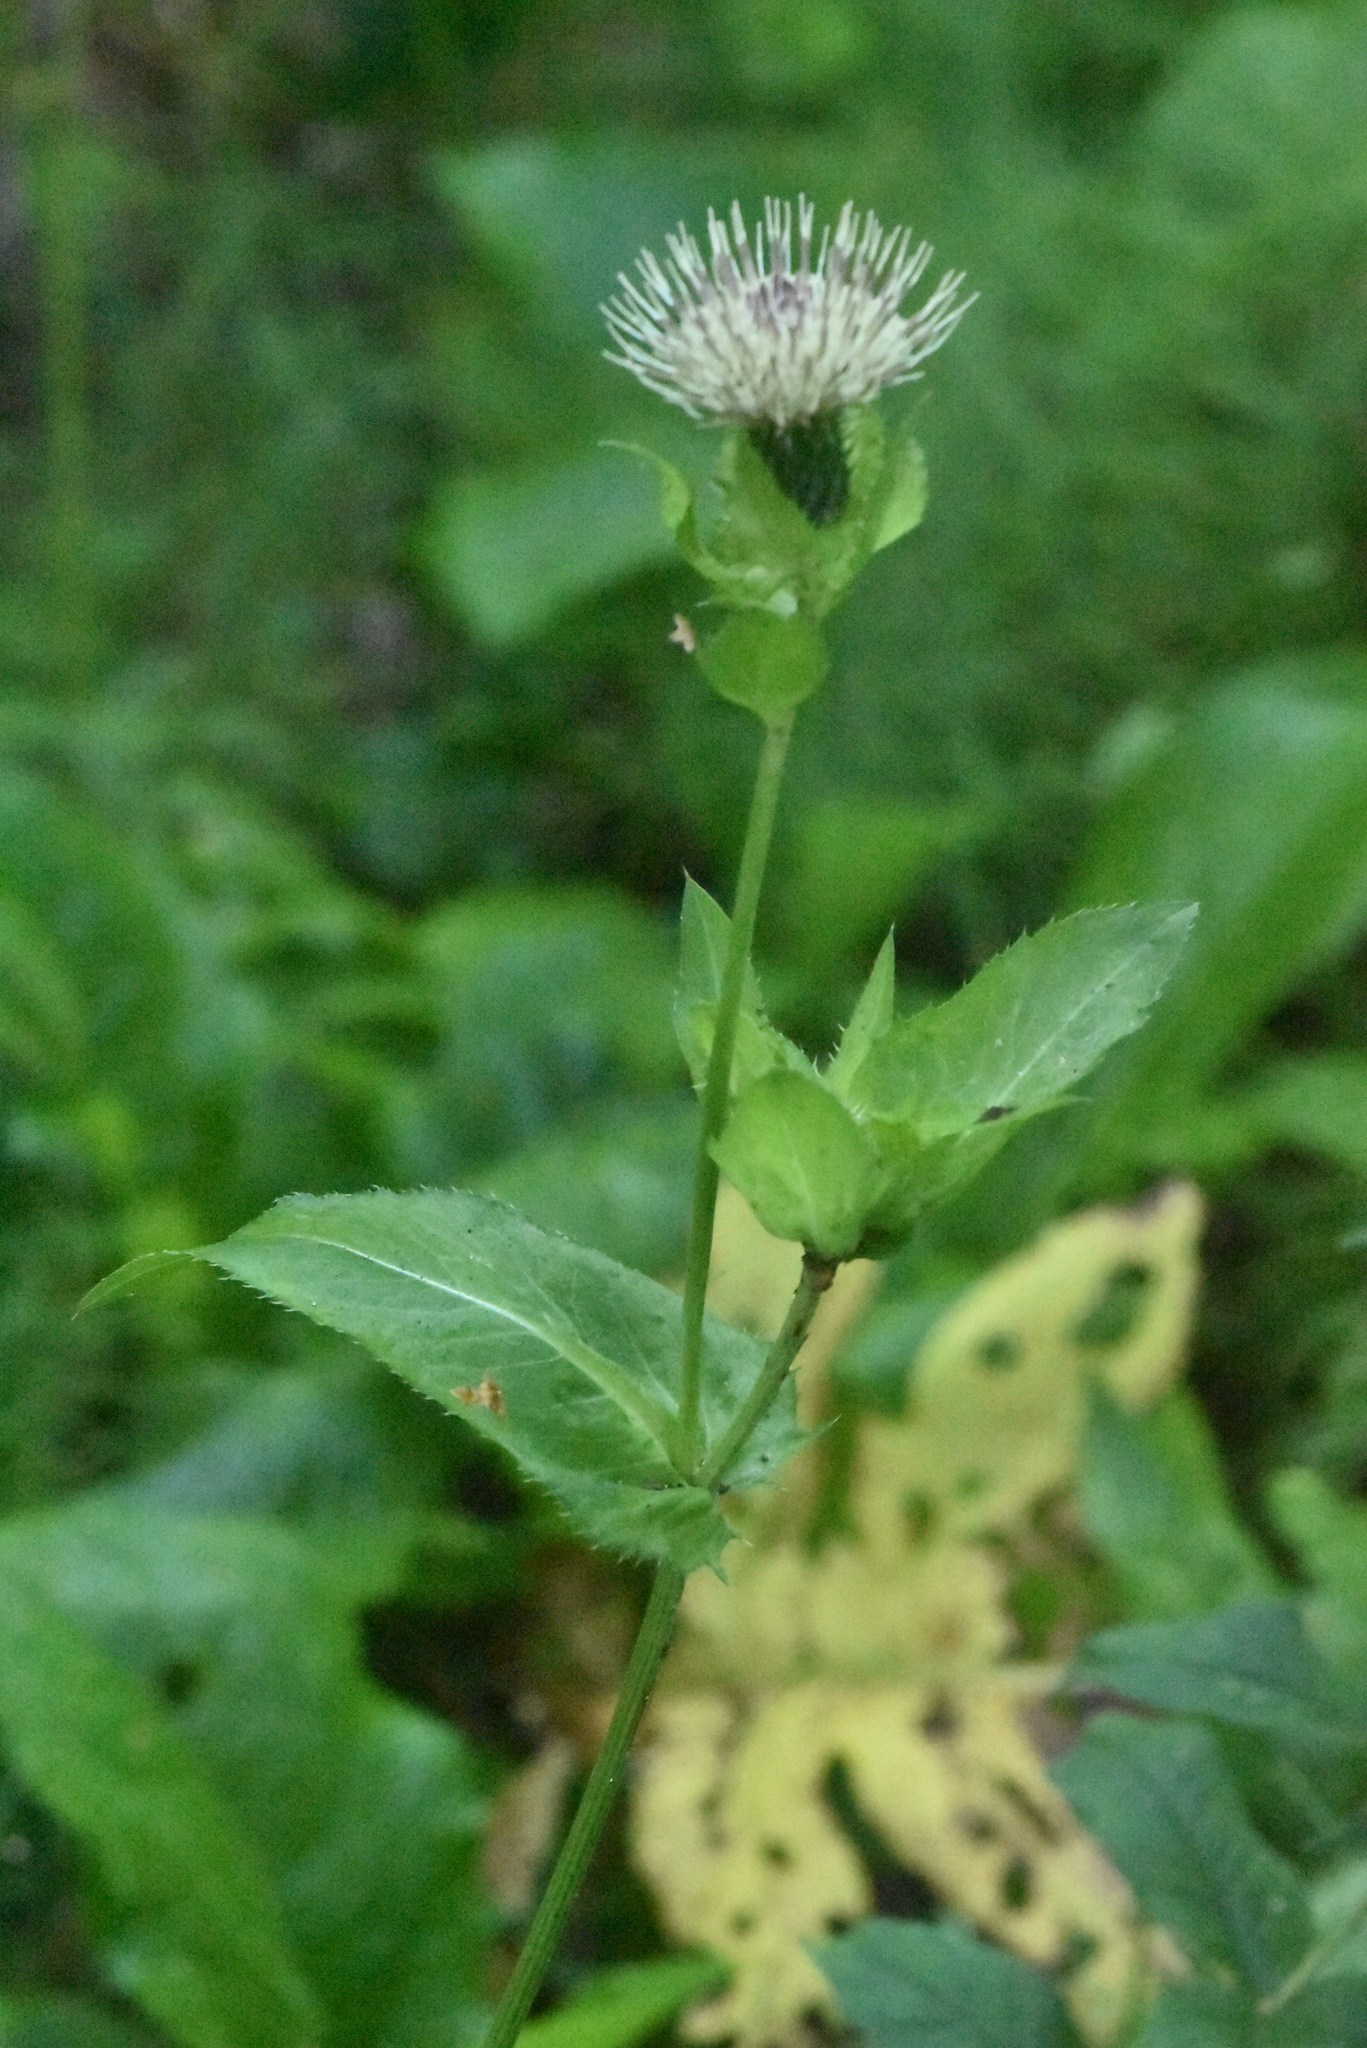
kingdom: Plantae
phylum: Tracheophyta
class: Magnoliopsida
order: Asterales
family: Asteraceae
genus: Cirsium
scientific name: Cirsium oleraceum
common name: Cabbage thistle
